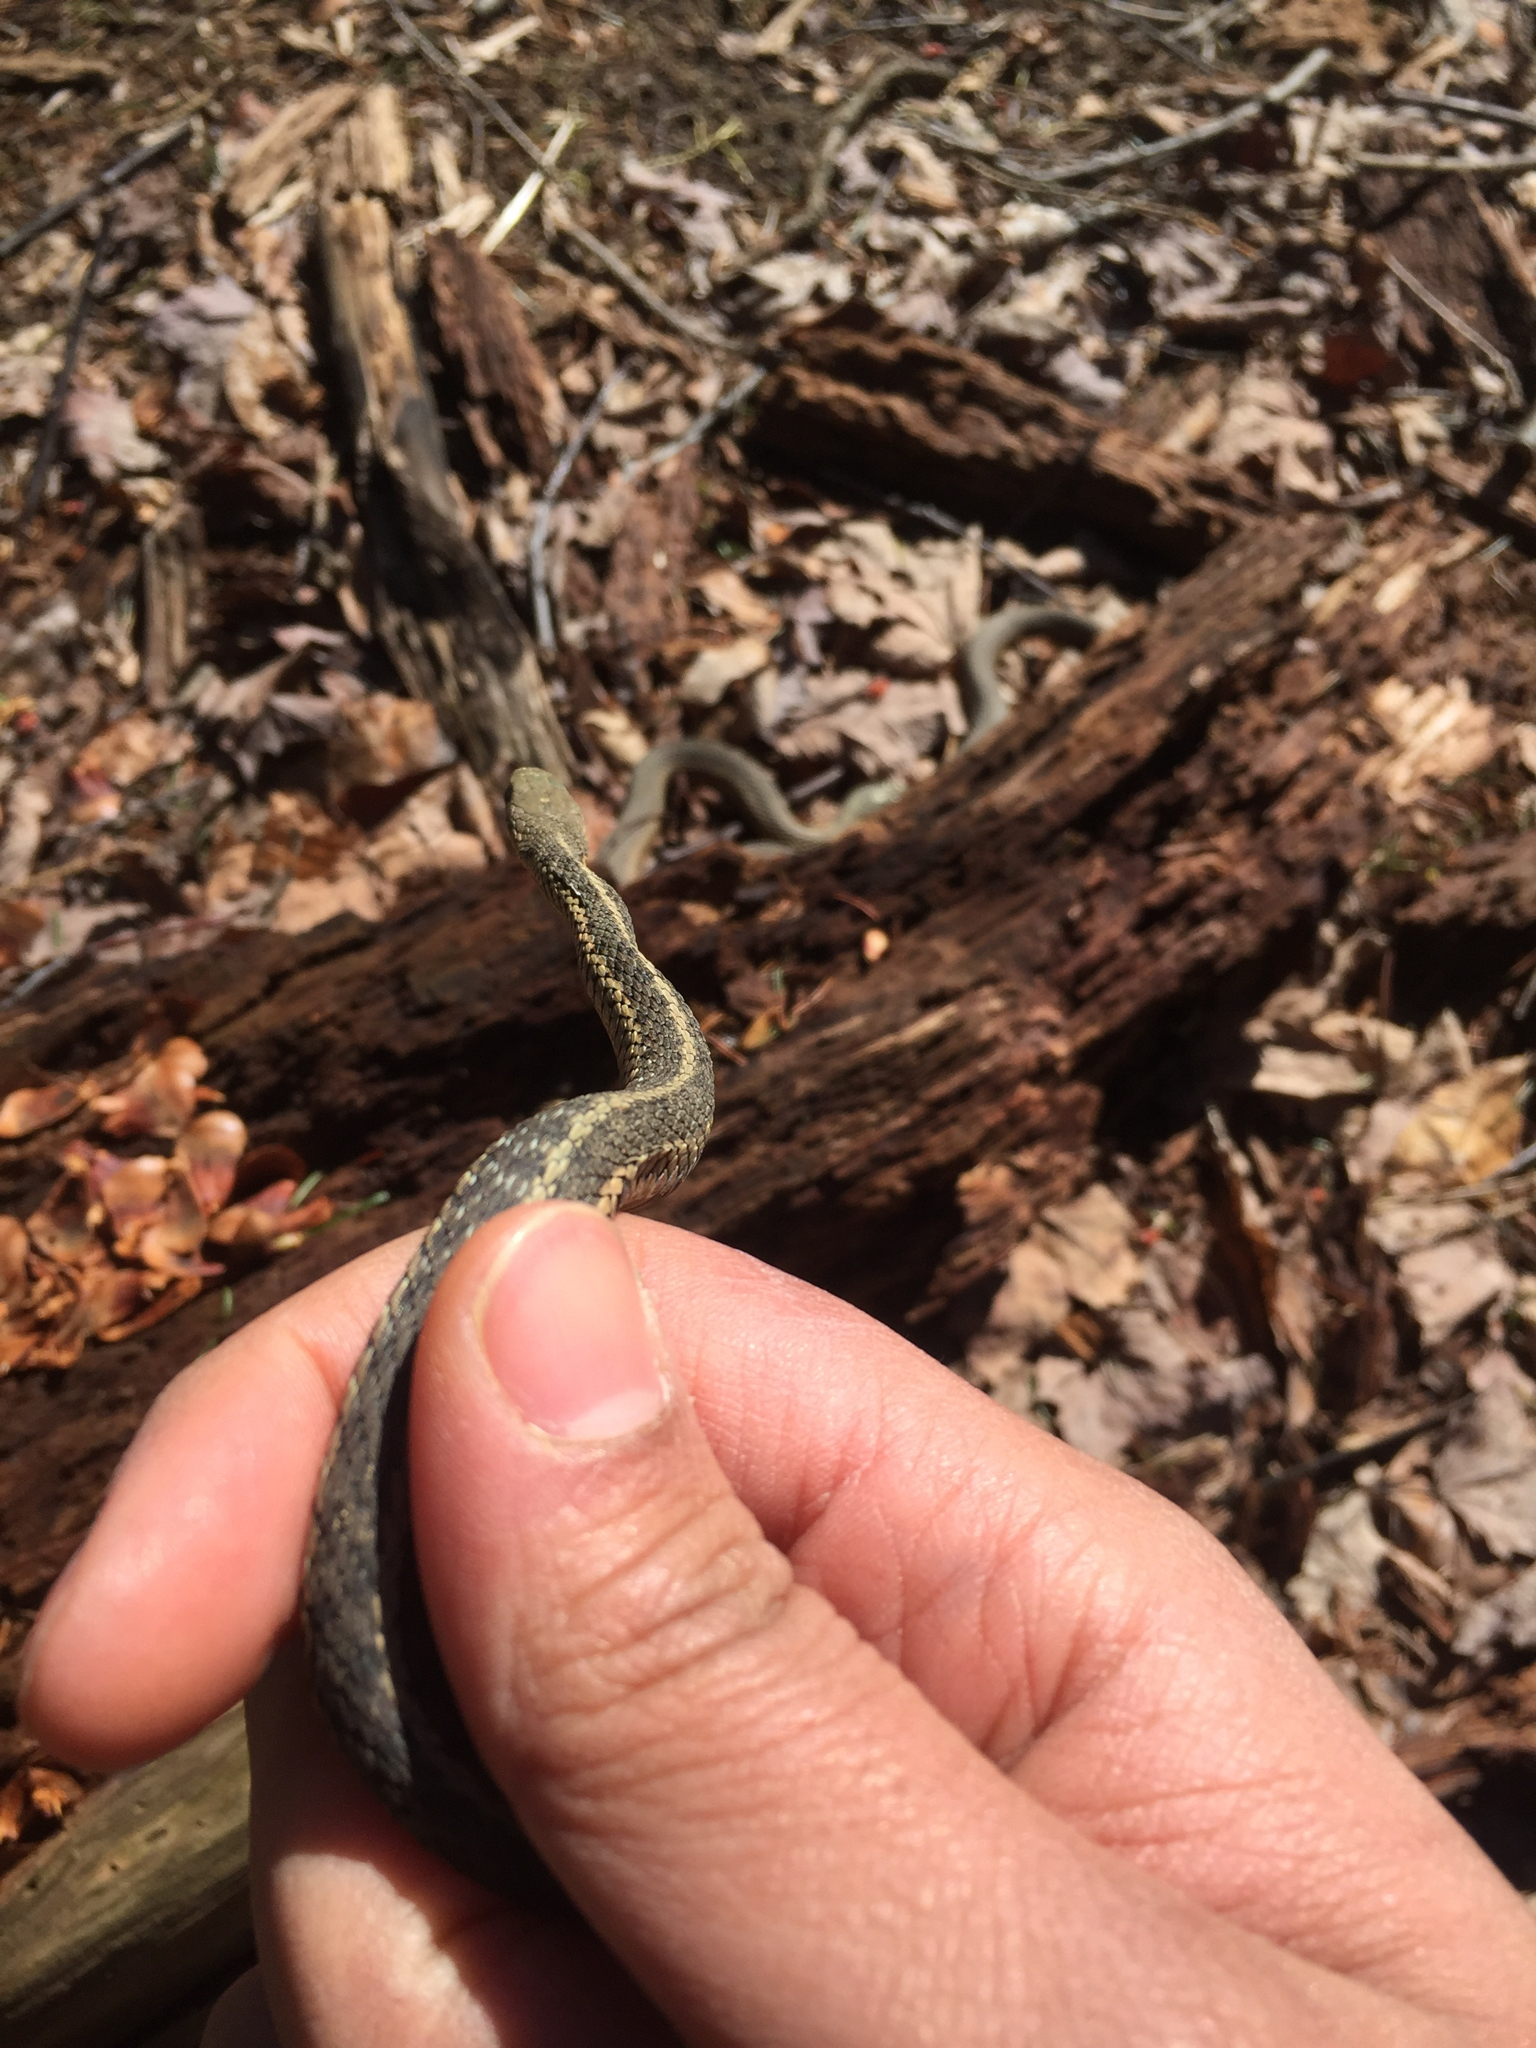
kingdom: Animalia
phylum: Chordata
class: Squamata
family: Colubridae
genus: Thamnophis
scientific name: Thamnophis sirtalis
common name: Common garter snake
